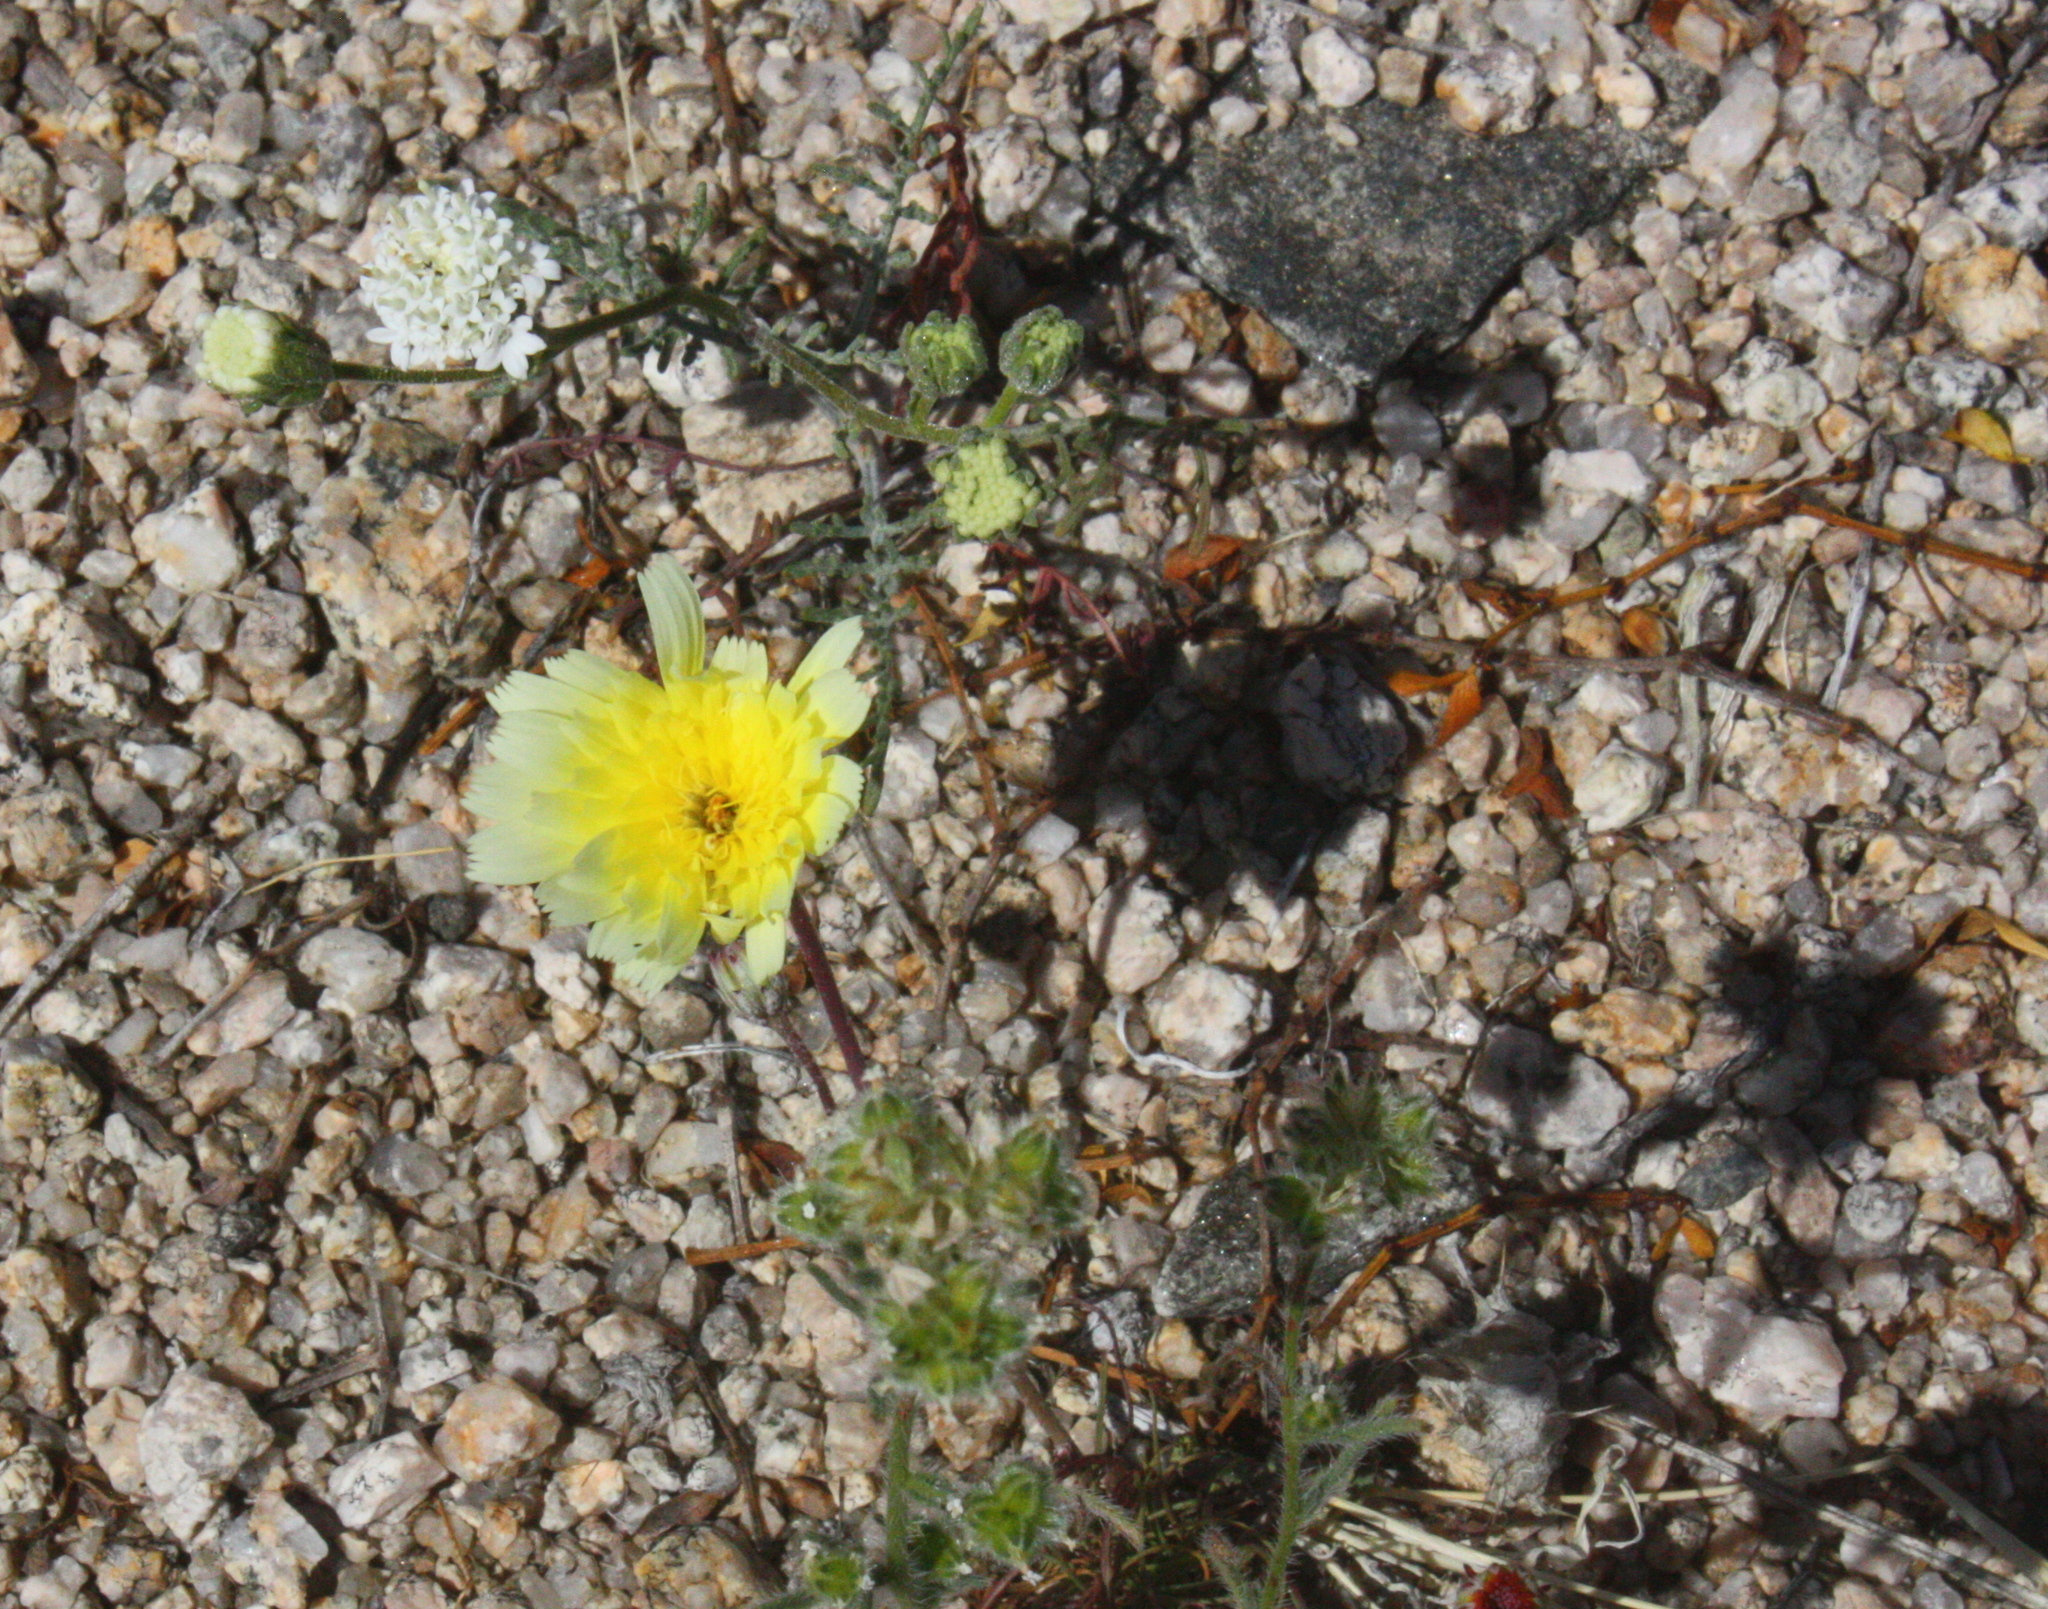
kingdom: Plantae
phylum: Tracheophyta
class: Magnoliopsida
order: Asterales
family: Asteraceae
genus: Malacothrix
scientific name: Malacothrix glabrata
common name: Smooth desert-dandelion
